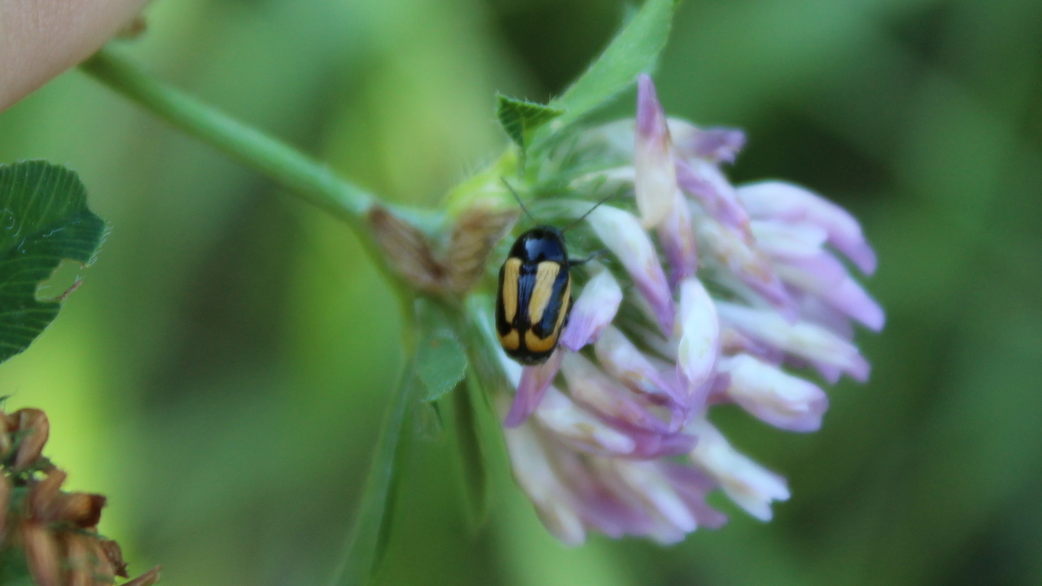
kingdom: Animalia
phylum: Arthropoda
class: Insecta
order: Coleoptera
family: Chrysomelidae
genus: Acalymma
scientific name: Acalymma vittatum
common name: Striped cucumber beetle
